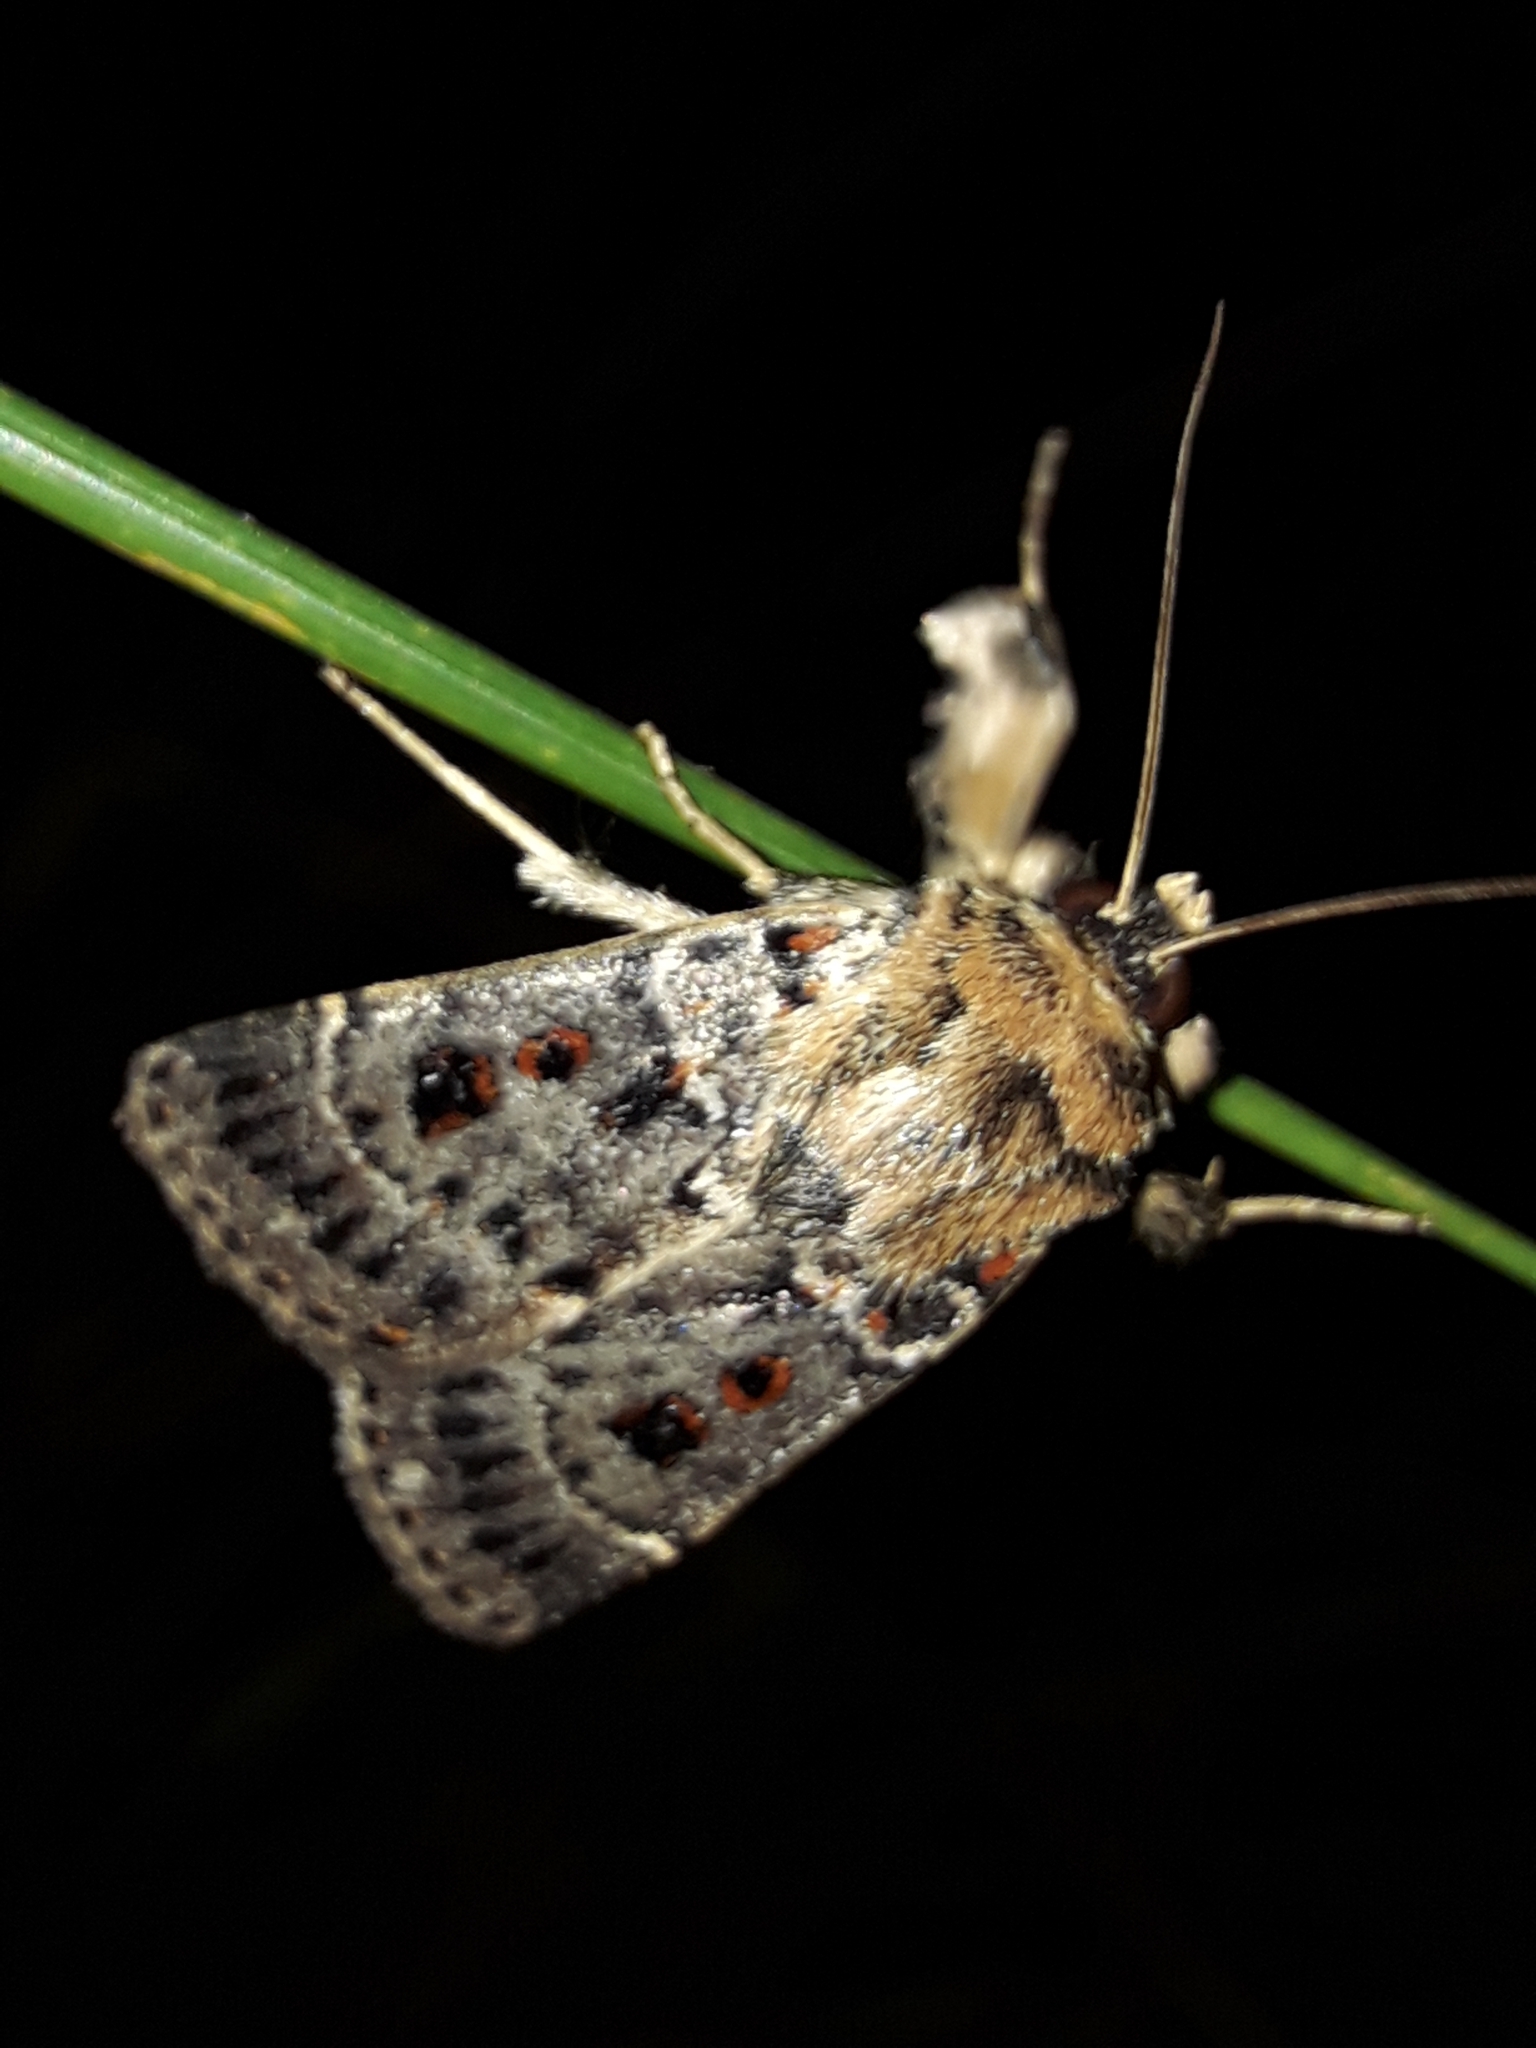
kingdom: Animalia
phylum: Arthropoda
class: Insecta
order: Lepidoptera
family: Noctuidae
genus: Proteuxoa
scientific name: Proteuxoa sanguinipuncta
